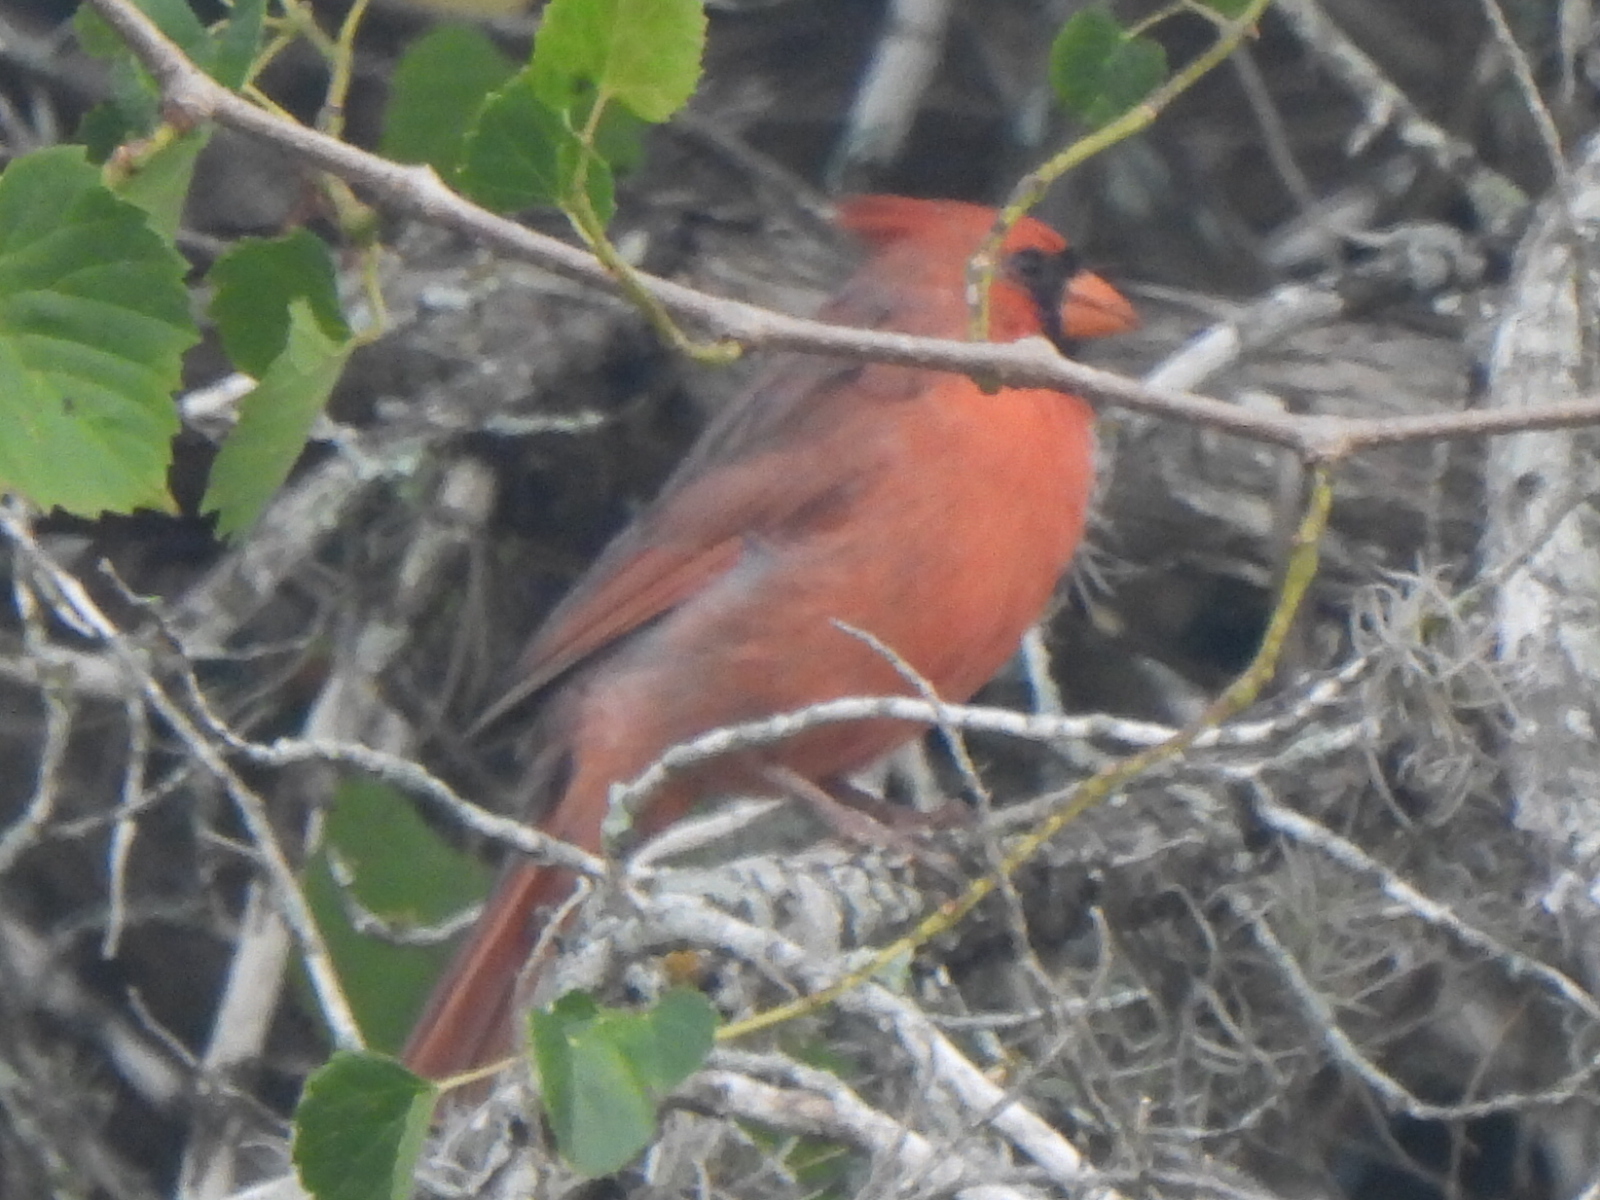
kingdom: Animalia
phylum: Chordata
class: Aves
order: Passeriformes
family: Cardinalidae
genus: Cardinalis
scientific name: Cardinalis cardinalis
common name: Northern cardinal
